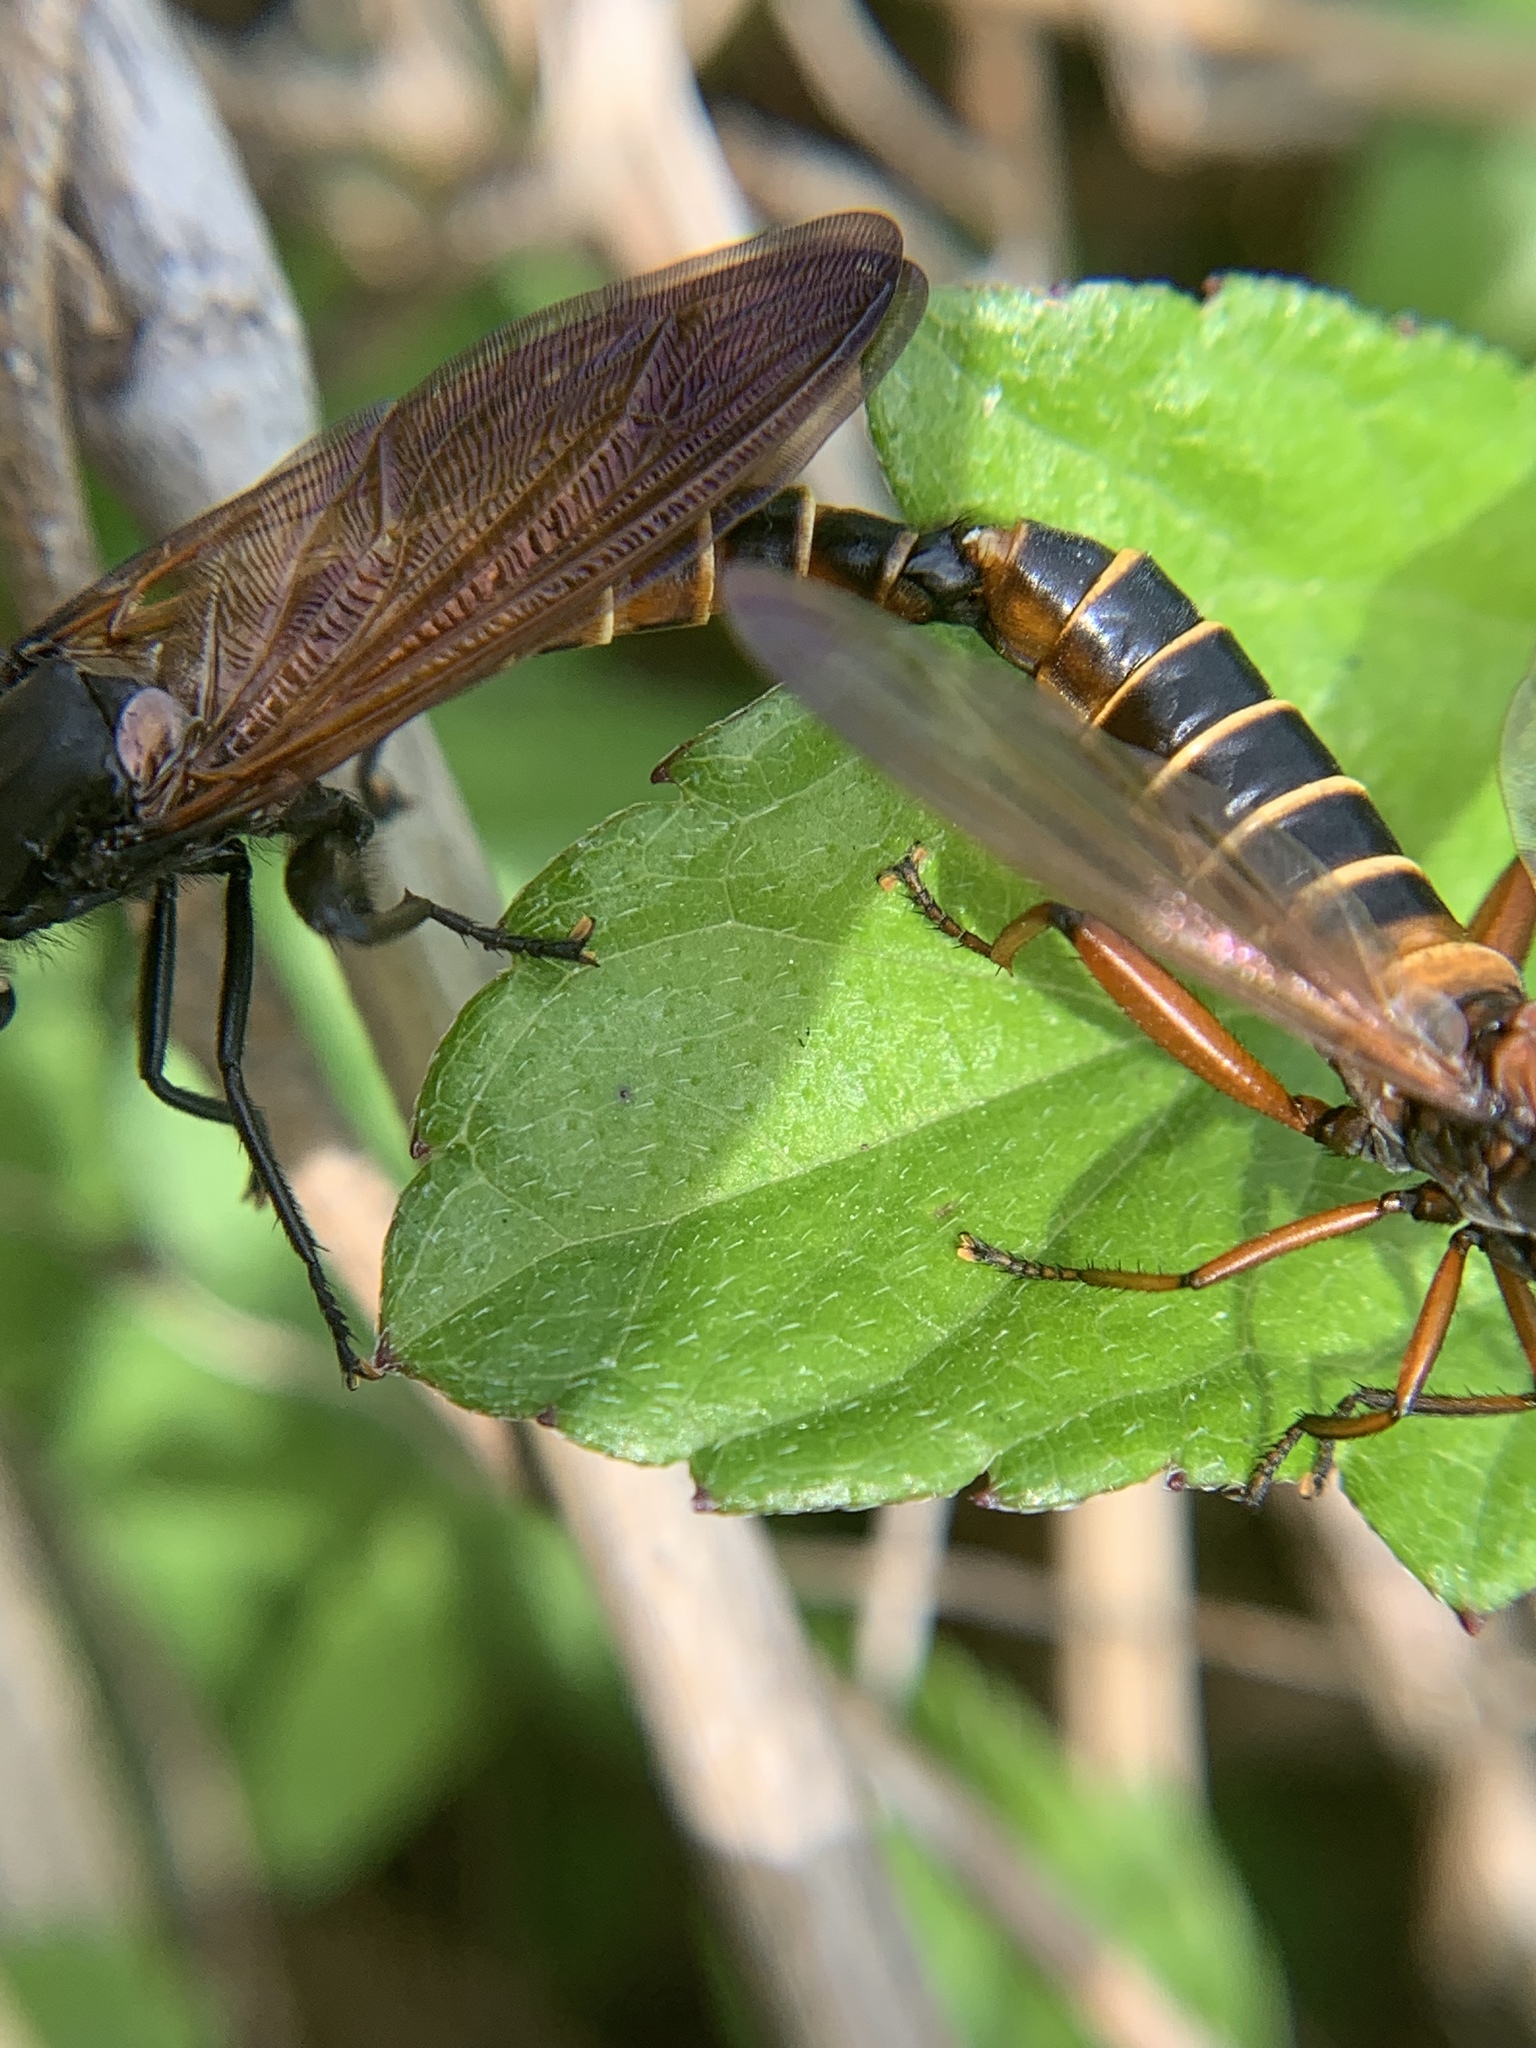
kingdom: Animalia
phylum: Arthropoda
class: Insecta
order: Diptera
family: Mydidae
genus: Mydas
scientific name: Mydas maculiventris
